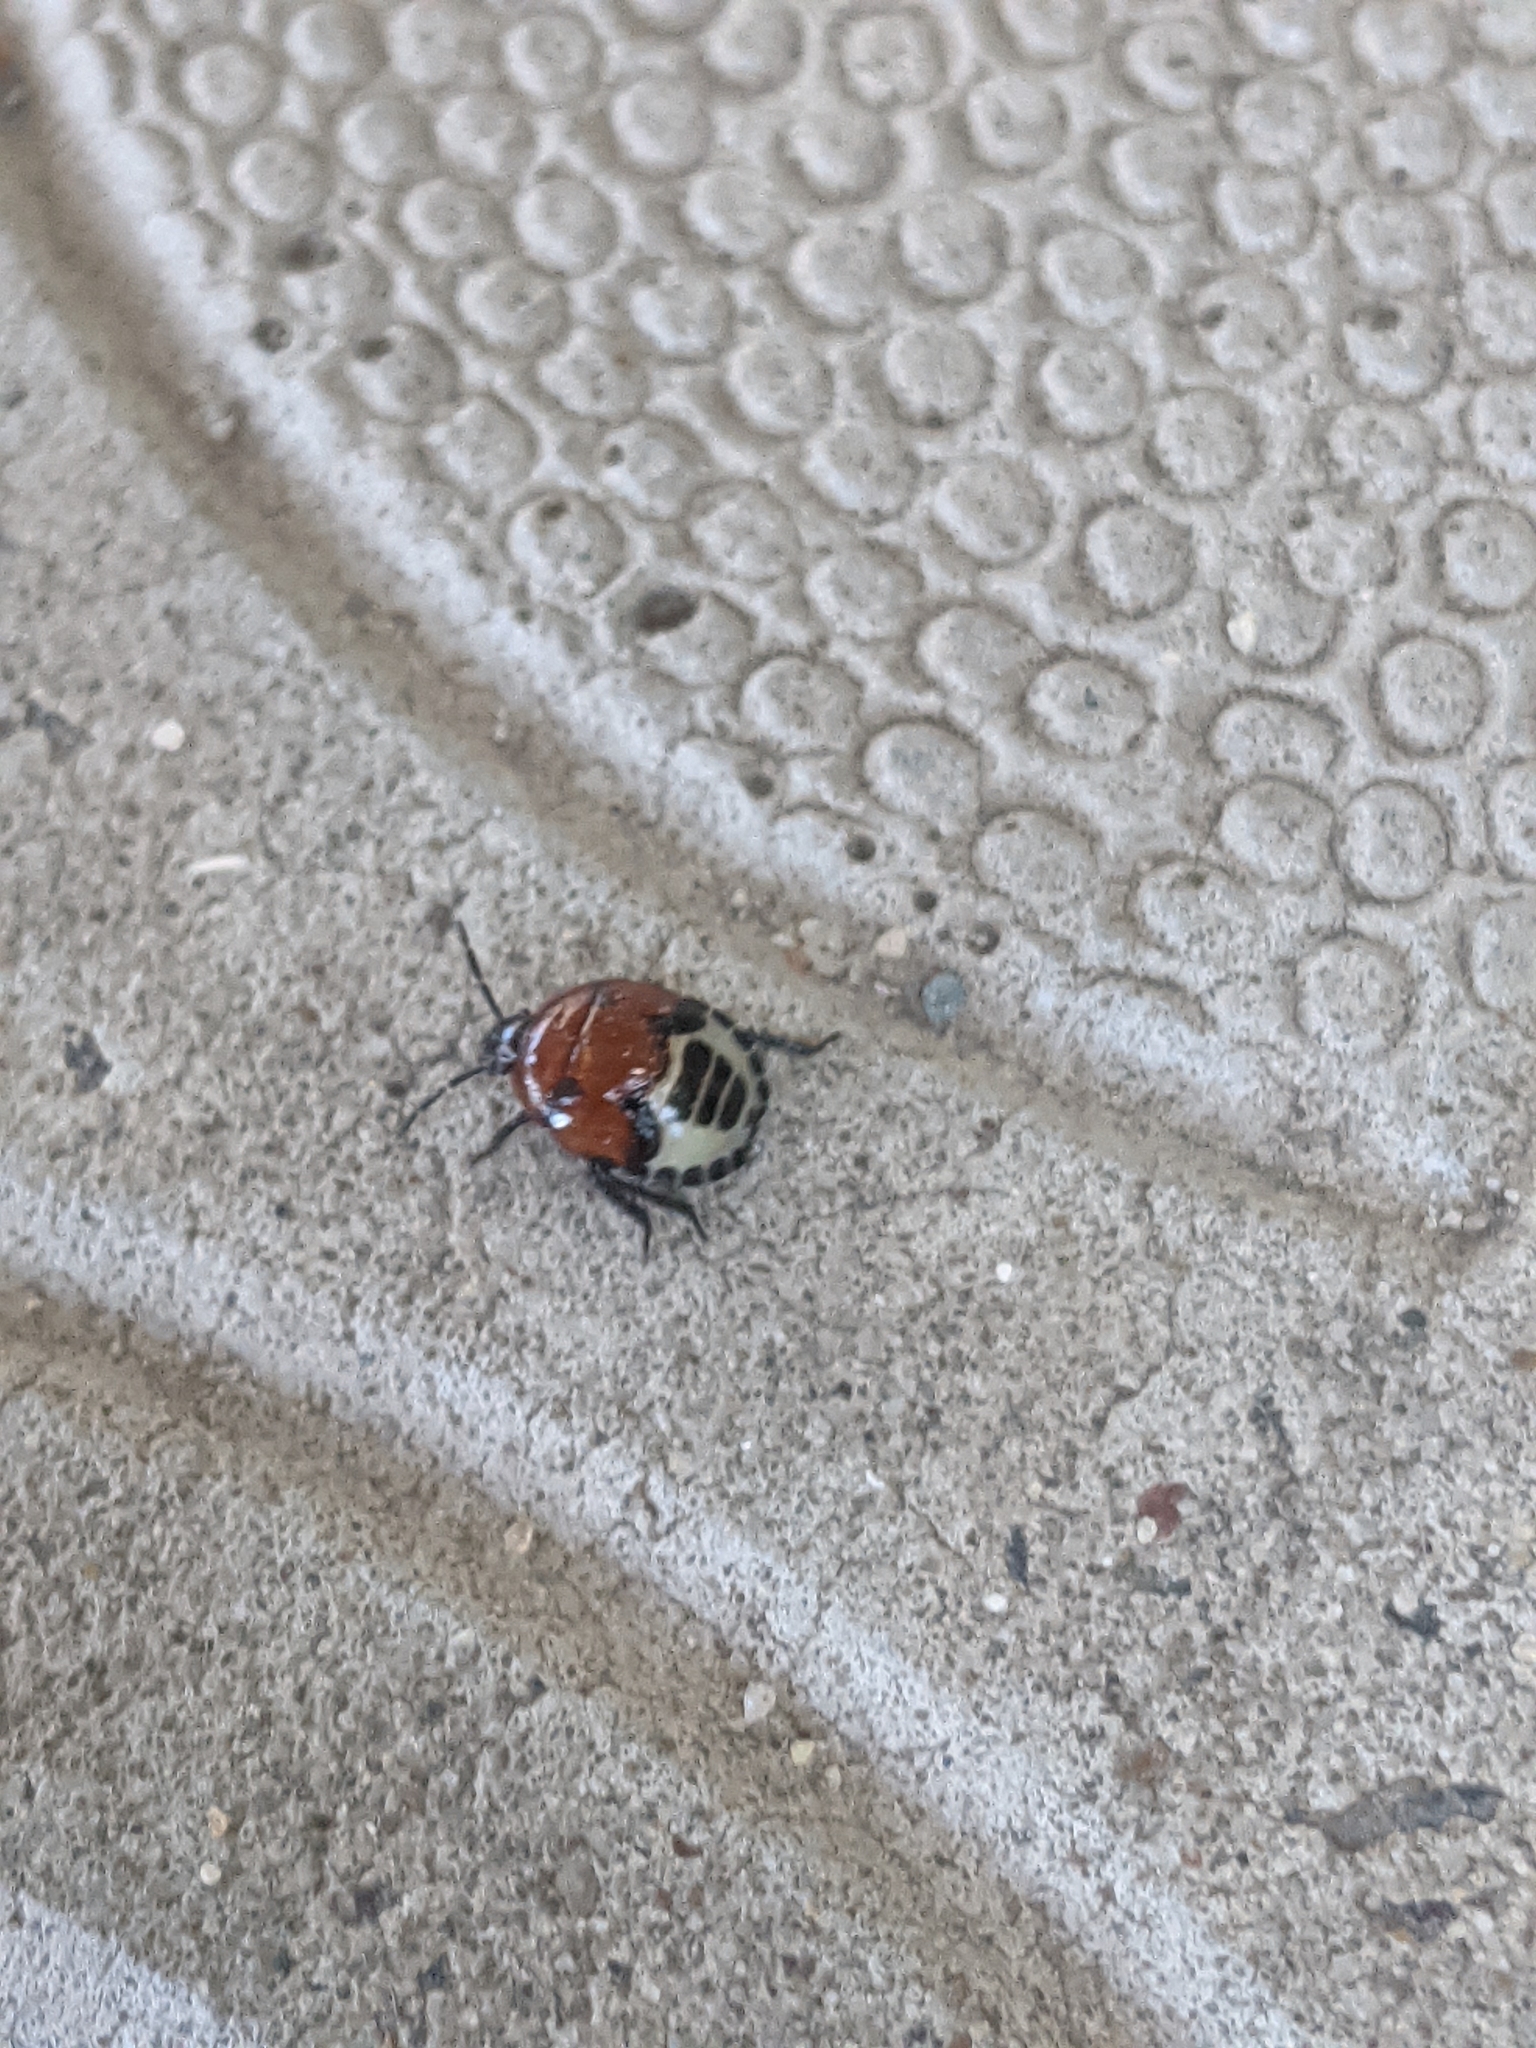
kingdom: Animalia
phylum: Arthropoda
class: Insecta
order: Hemiptera
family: Cydnidae
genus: Tritomegas
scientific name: Tritomegas sexmaculatus
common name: Rambur's pied shieldbug
